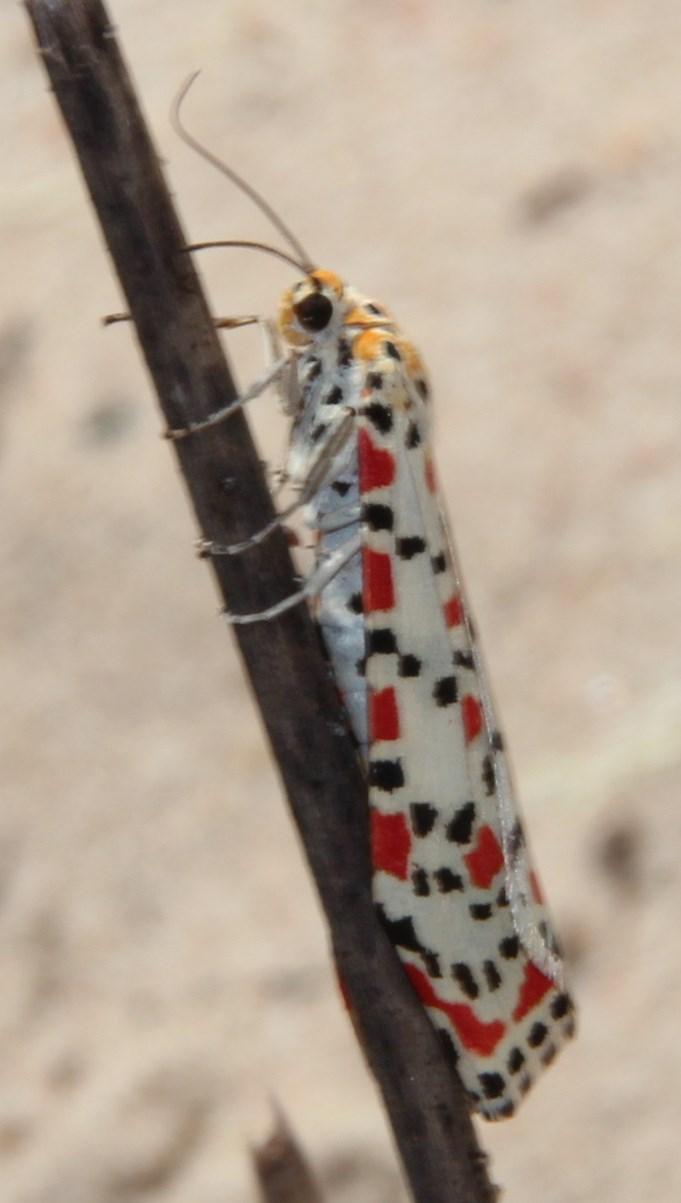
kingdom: Animalia
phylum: Arthropoda
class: Insecta
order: Lepidoptera
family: Erebidae
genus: Utetheisa
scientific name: Utetheisa pulchella
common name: Crimson speckled
